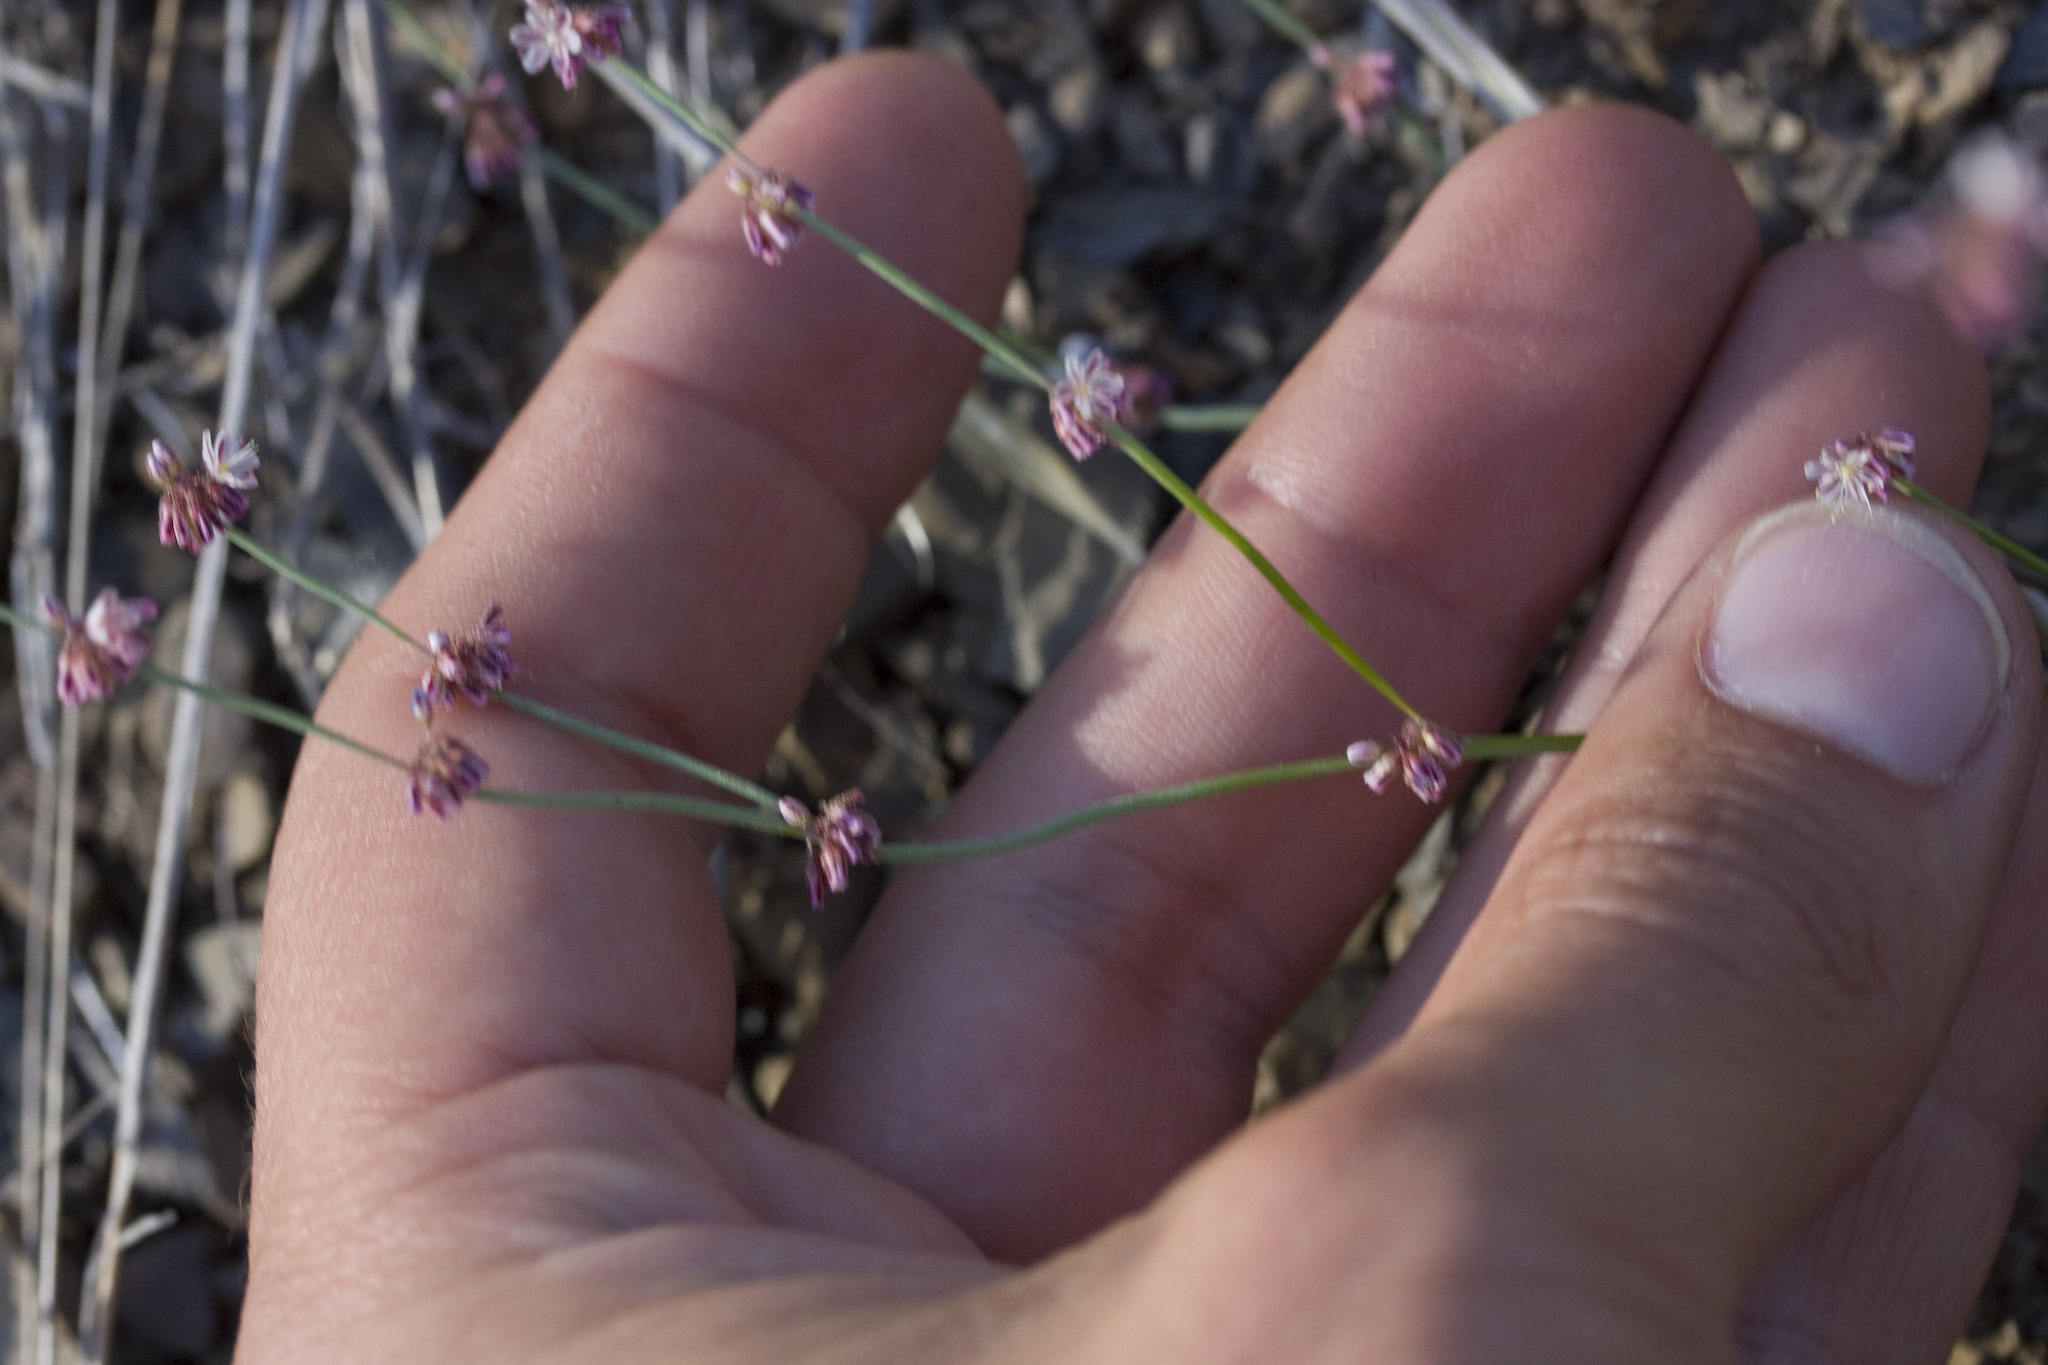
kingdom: Plantae
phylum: Tracheophyta
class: Magnoliopsida
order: Caryophyllales
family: Polygonaceae
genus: Eriogonum
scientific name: Eriogonum covilleanum
